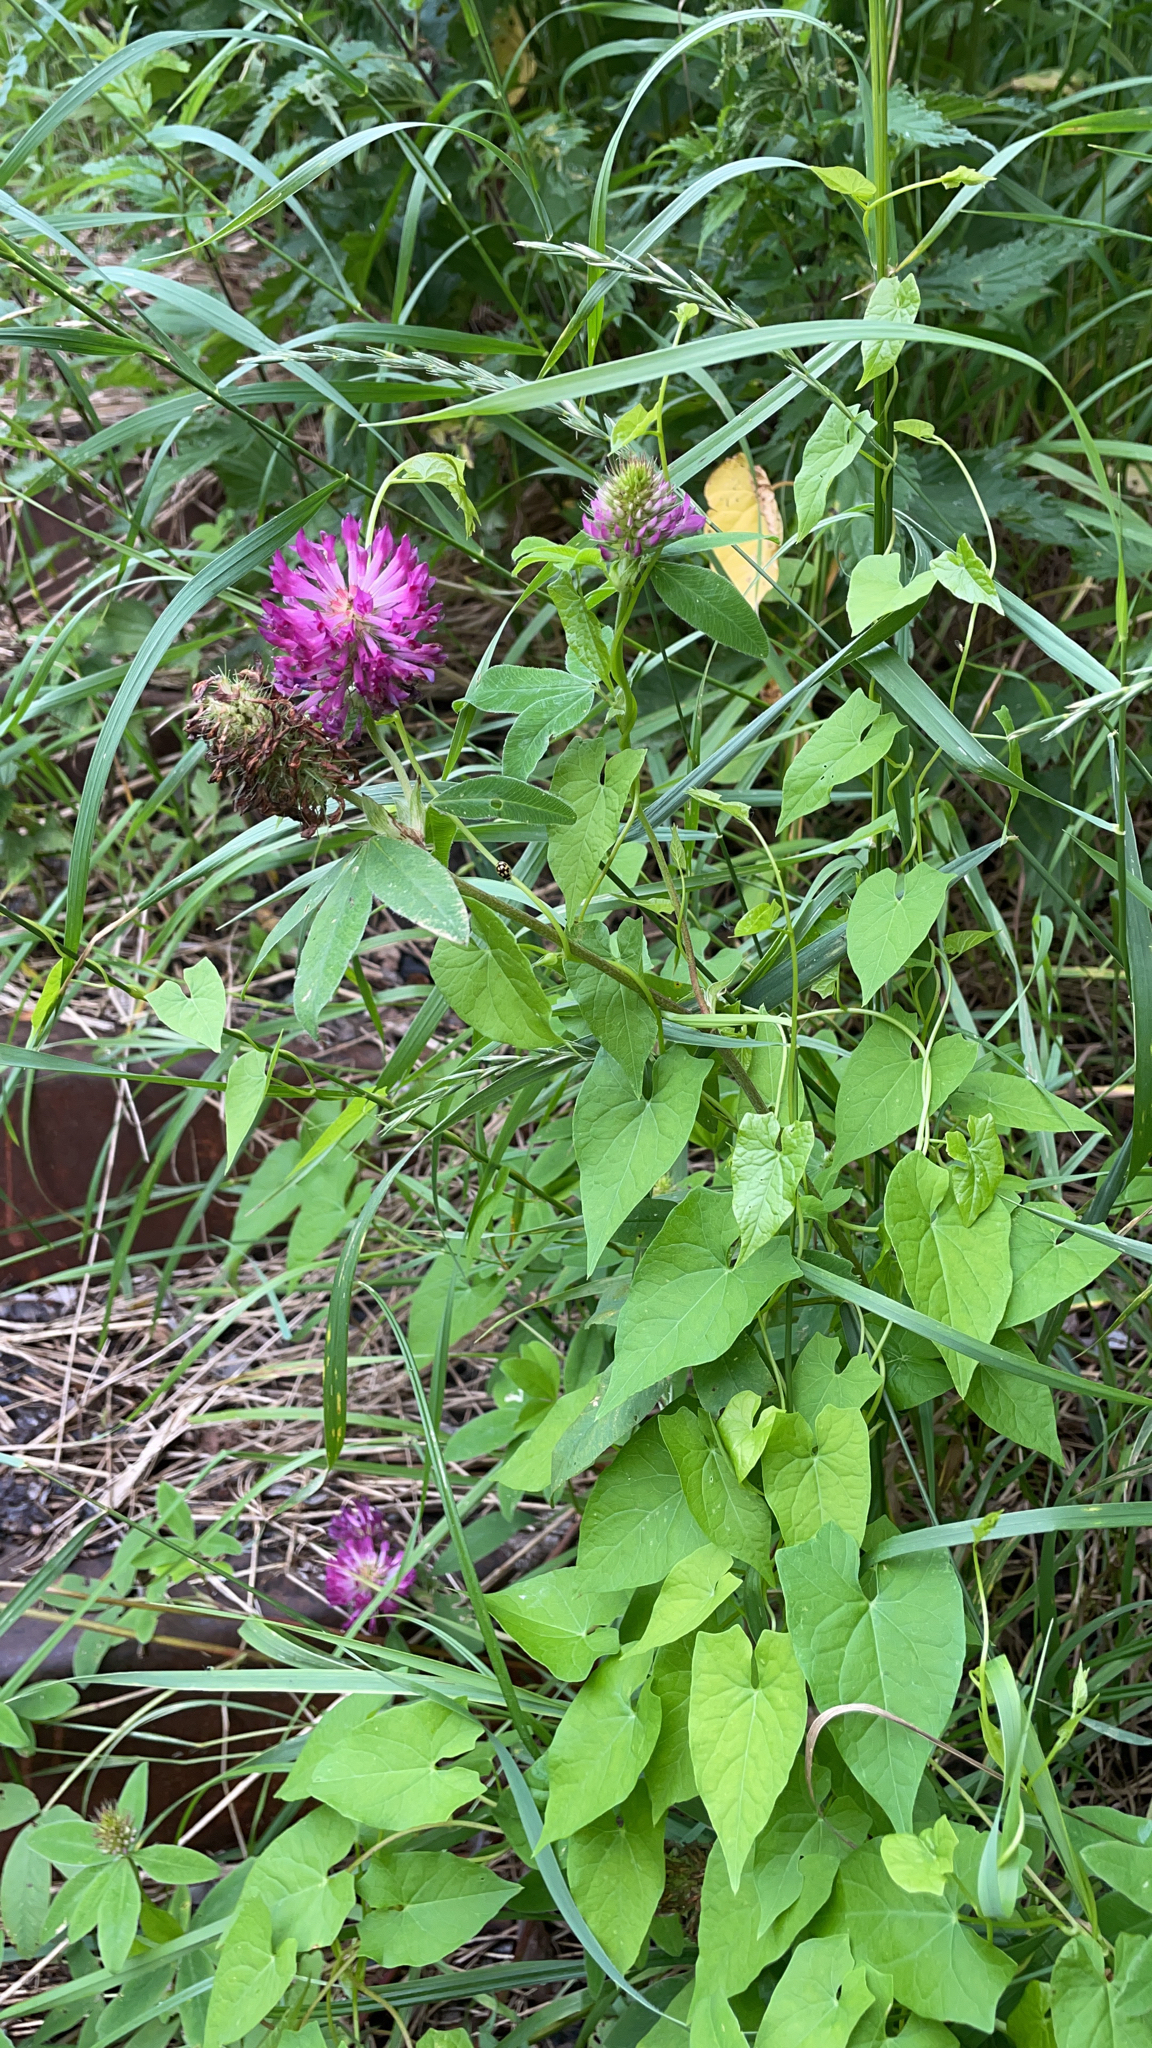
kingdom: Plantae
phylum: Tracheophyta
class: Magnoliopsida
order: Fabales
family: Fabaceae
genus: Trifolium
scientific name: Trifolium medium
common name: Zigzag clover
